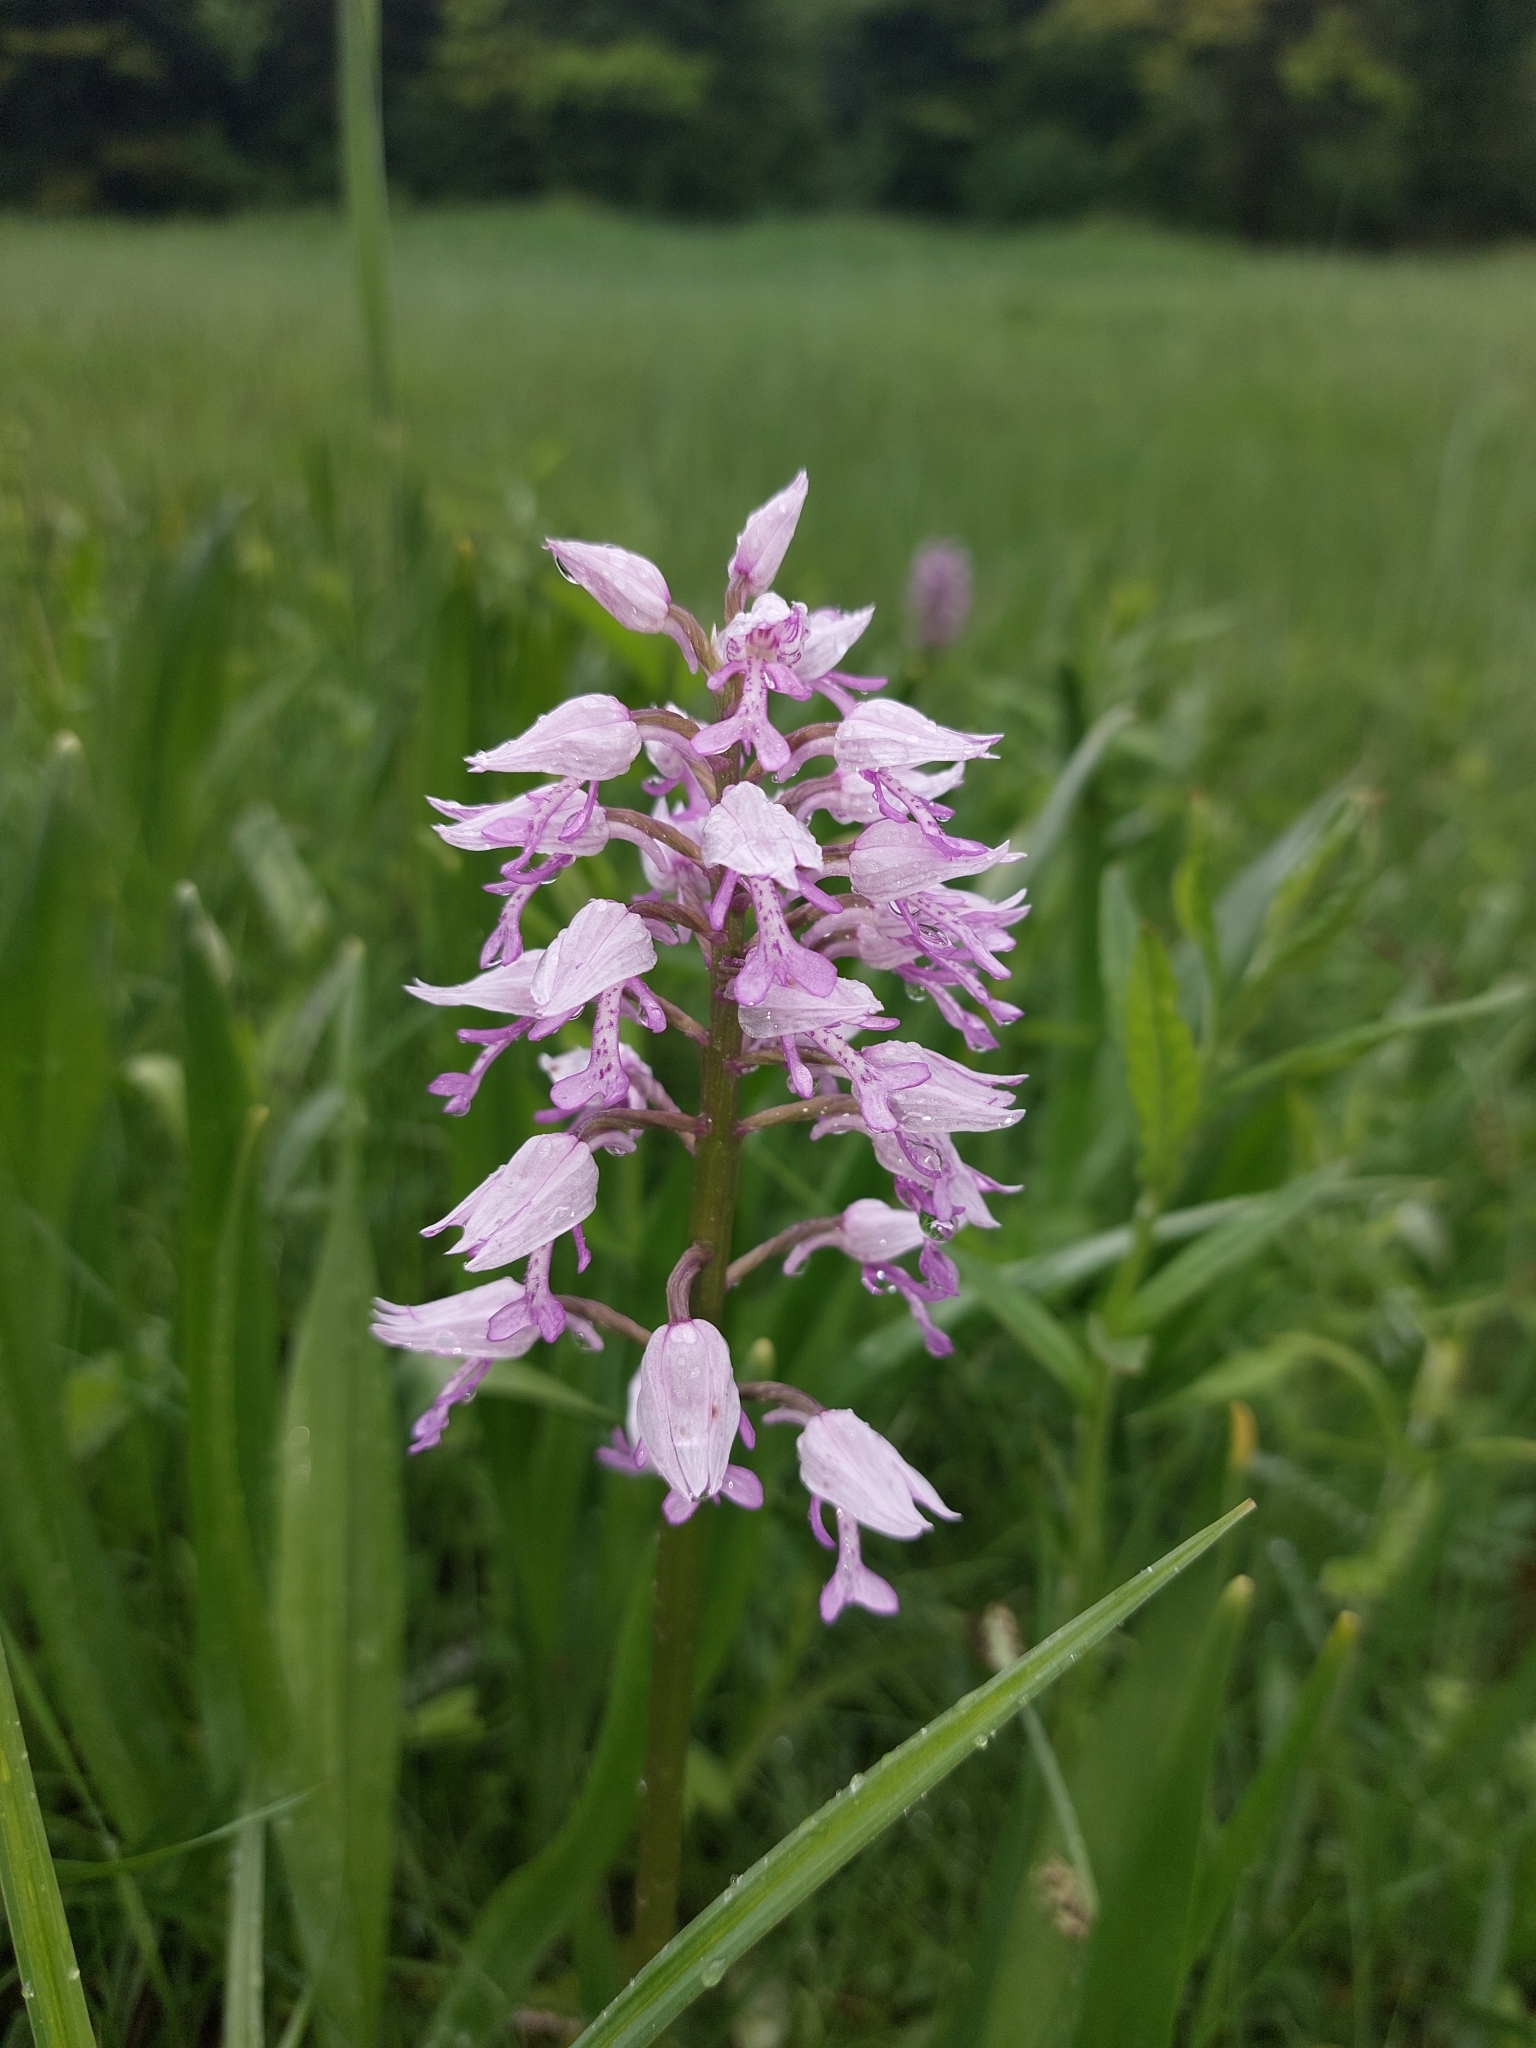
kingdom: Plantae
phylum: Tracheophyta
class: Liliopsida
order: Asparagales
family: Orchidaceae
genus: Orchis
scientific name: Orchis militaris
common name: Military orchid
